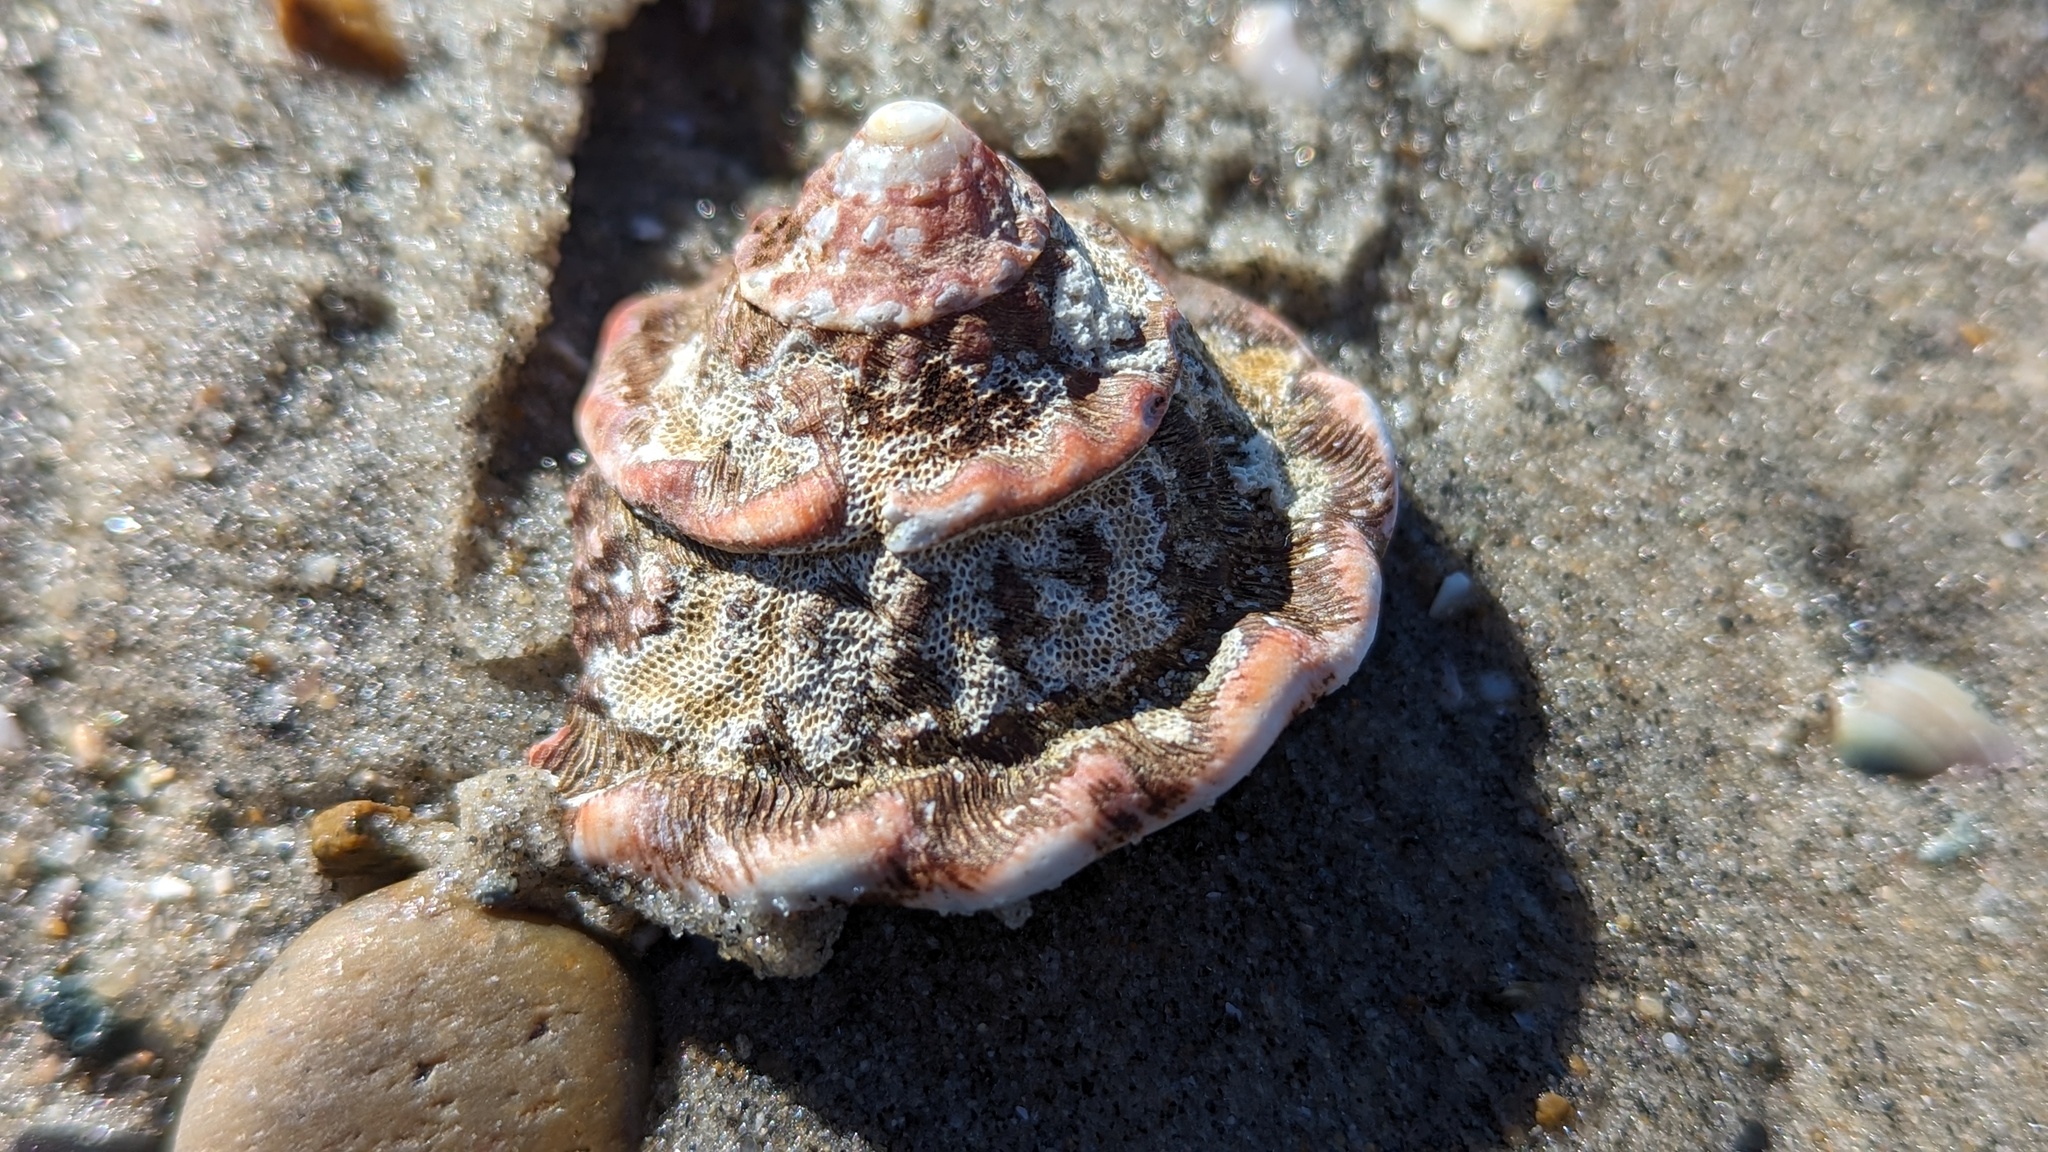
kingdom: Animalia
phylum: Mollusca
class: Gastropoda
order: Trochida
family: Turbinidae
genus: Megastraea
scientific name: Megastraea undosa
